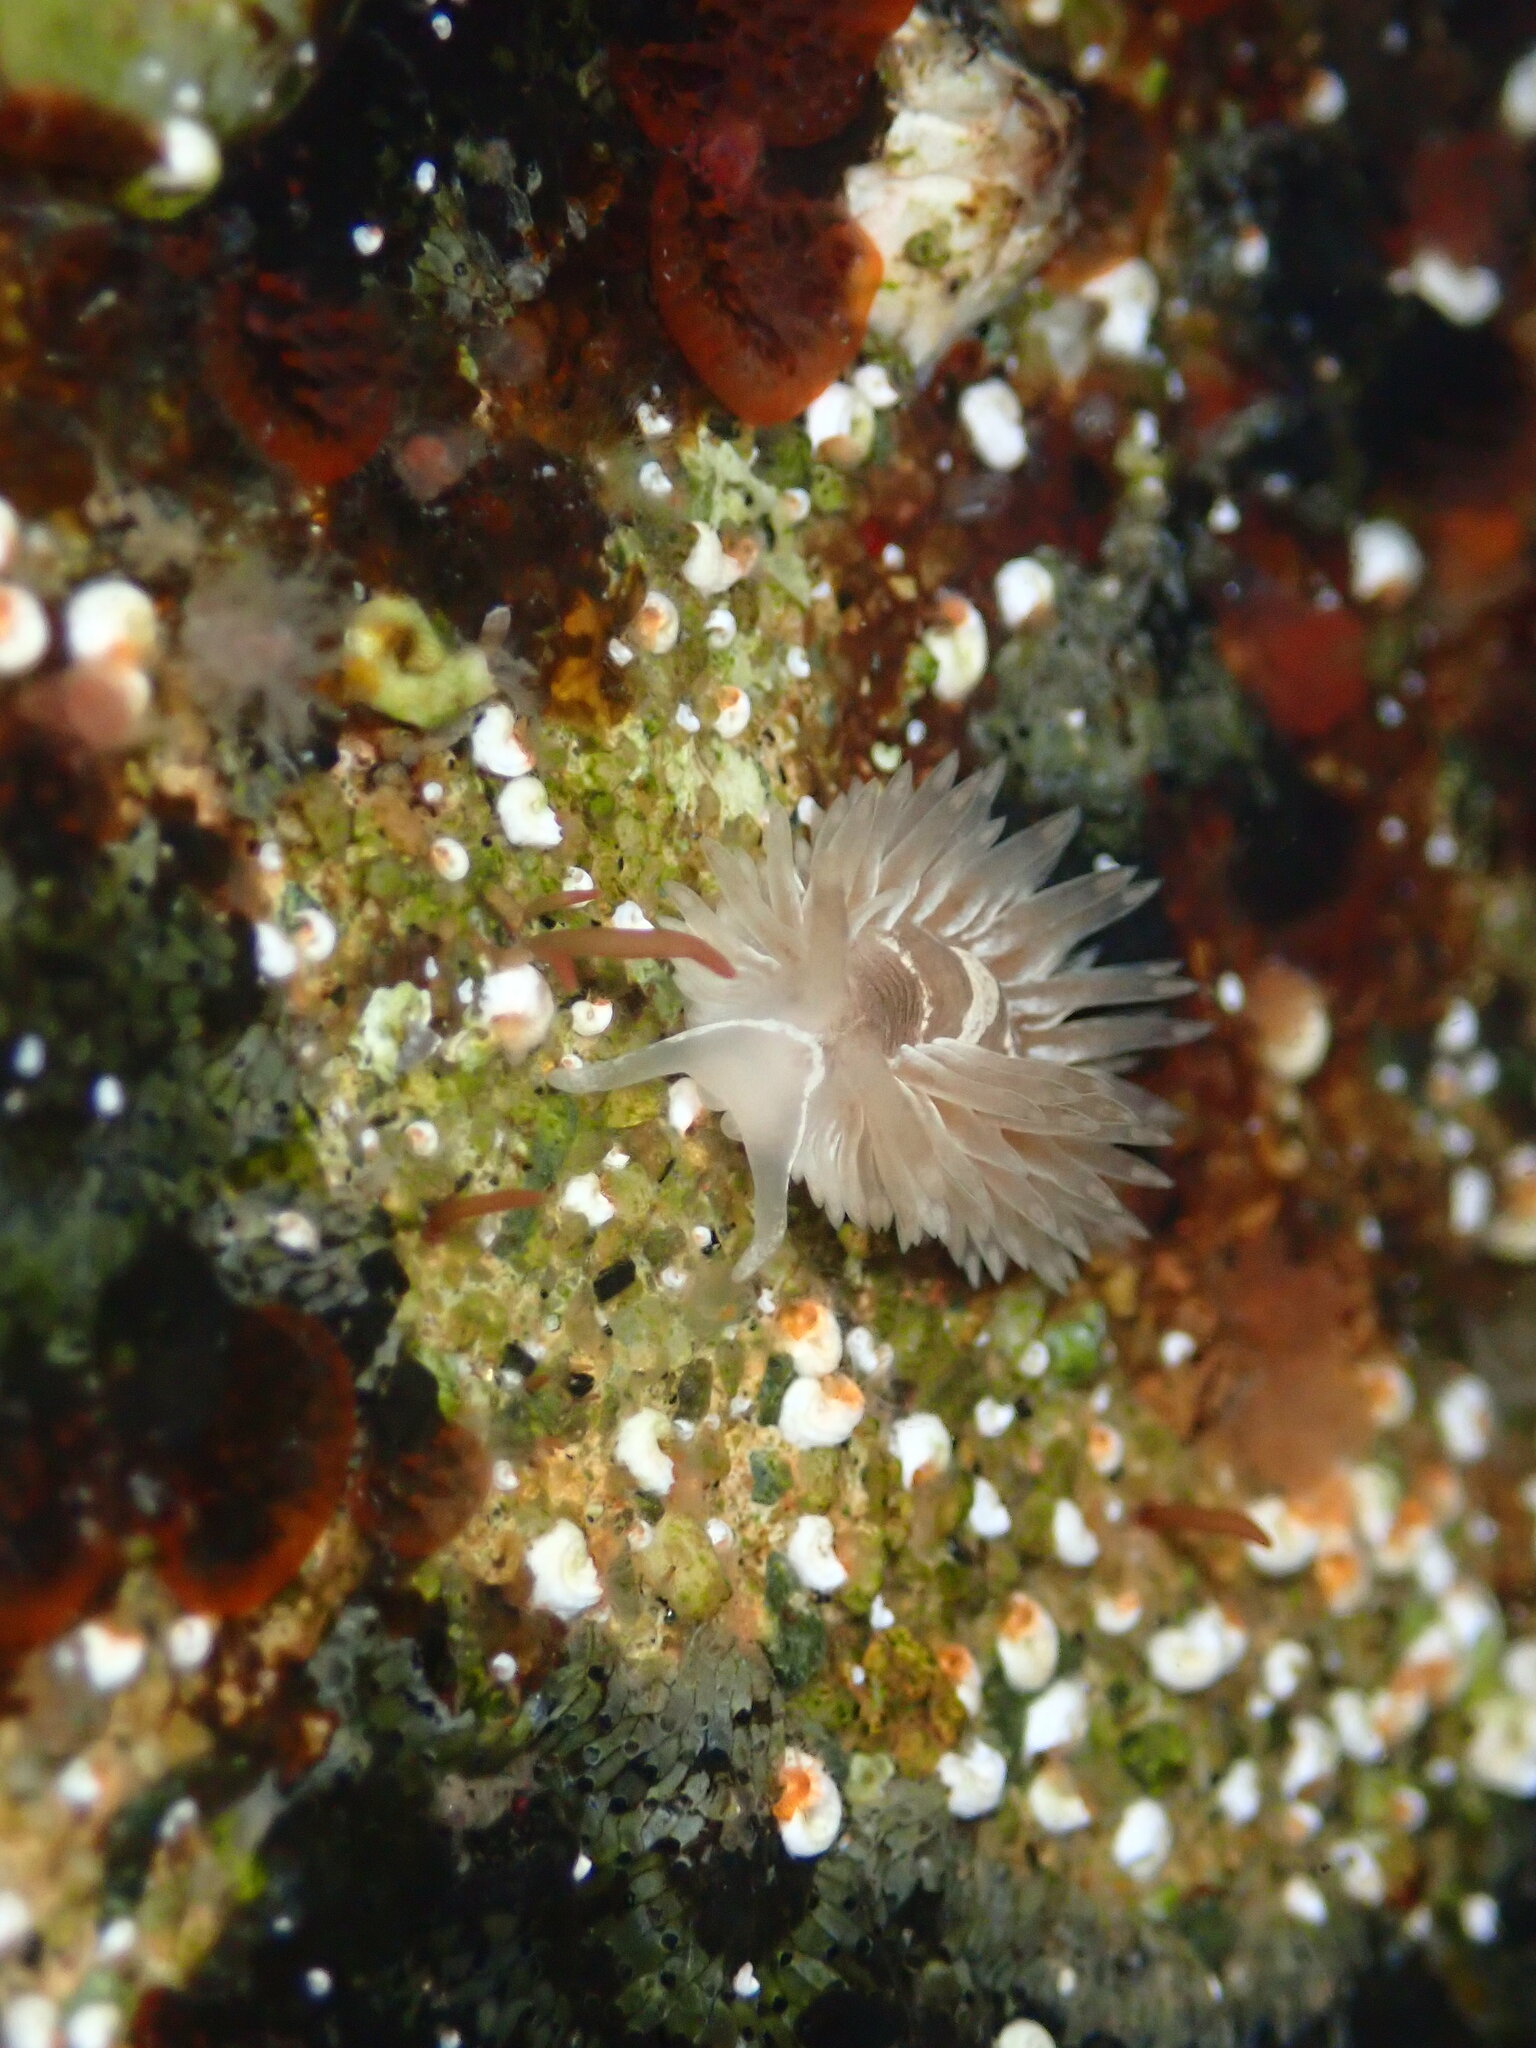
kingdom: Animalia
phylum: Mollusca
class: Gastropoda
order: Nudibranchia
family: Aeolidiidae
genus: Aeolidia
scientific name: Aeolidia loui
